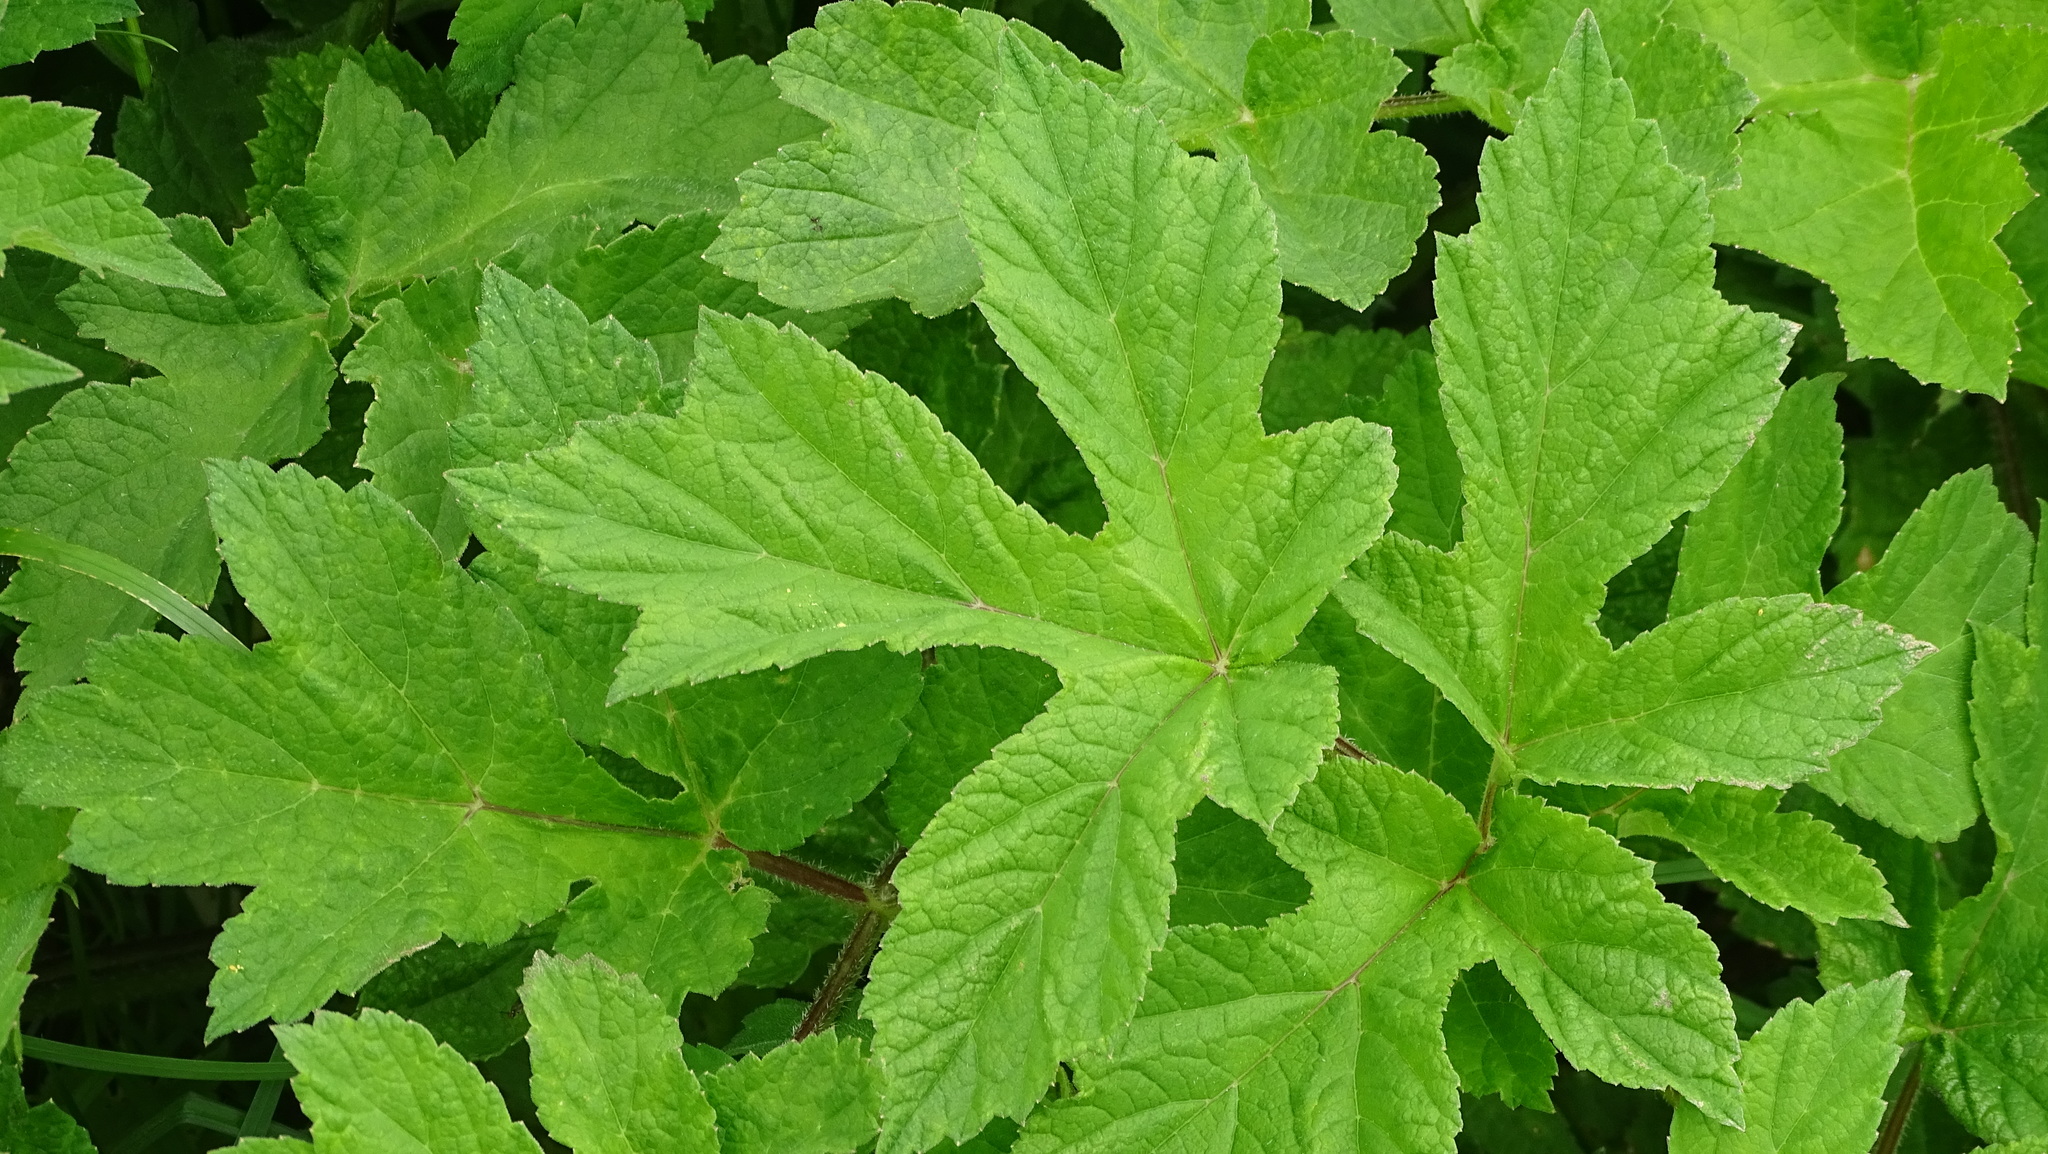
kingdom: Plantae
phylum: Tracheophyta
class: Magnoliopsida
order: Apiales
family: Apiaceae
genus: Heracleum
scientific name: Heracleum sphondylium
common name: Hogweed
